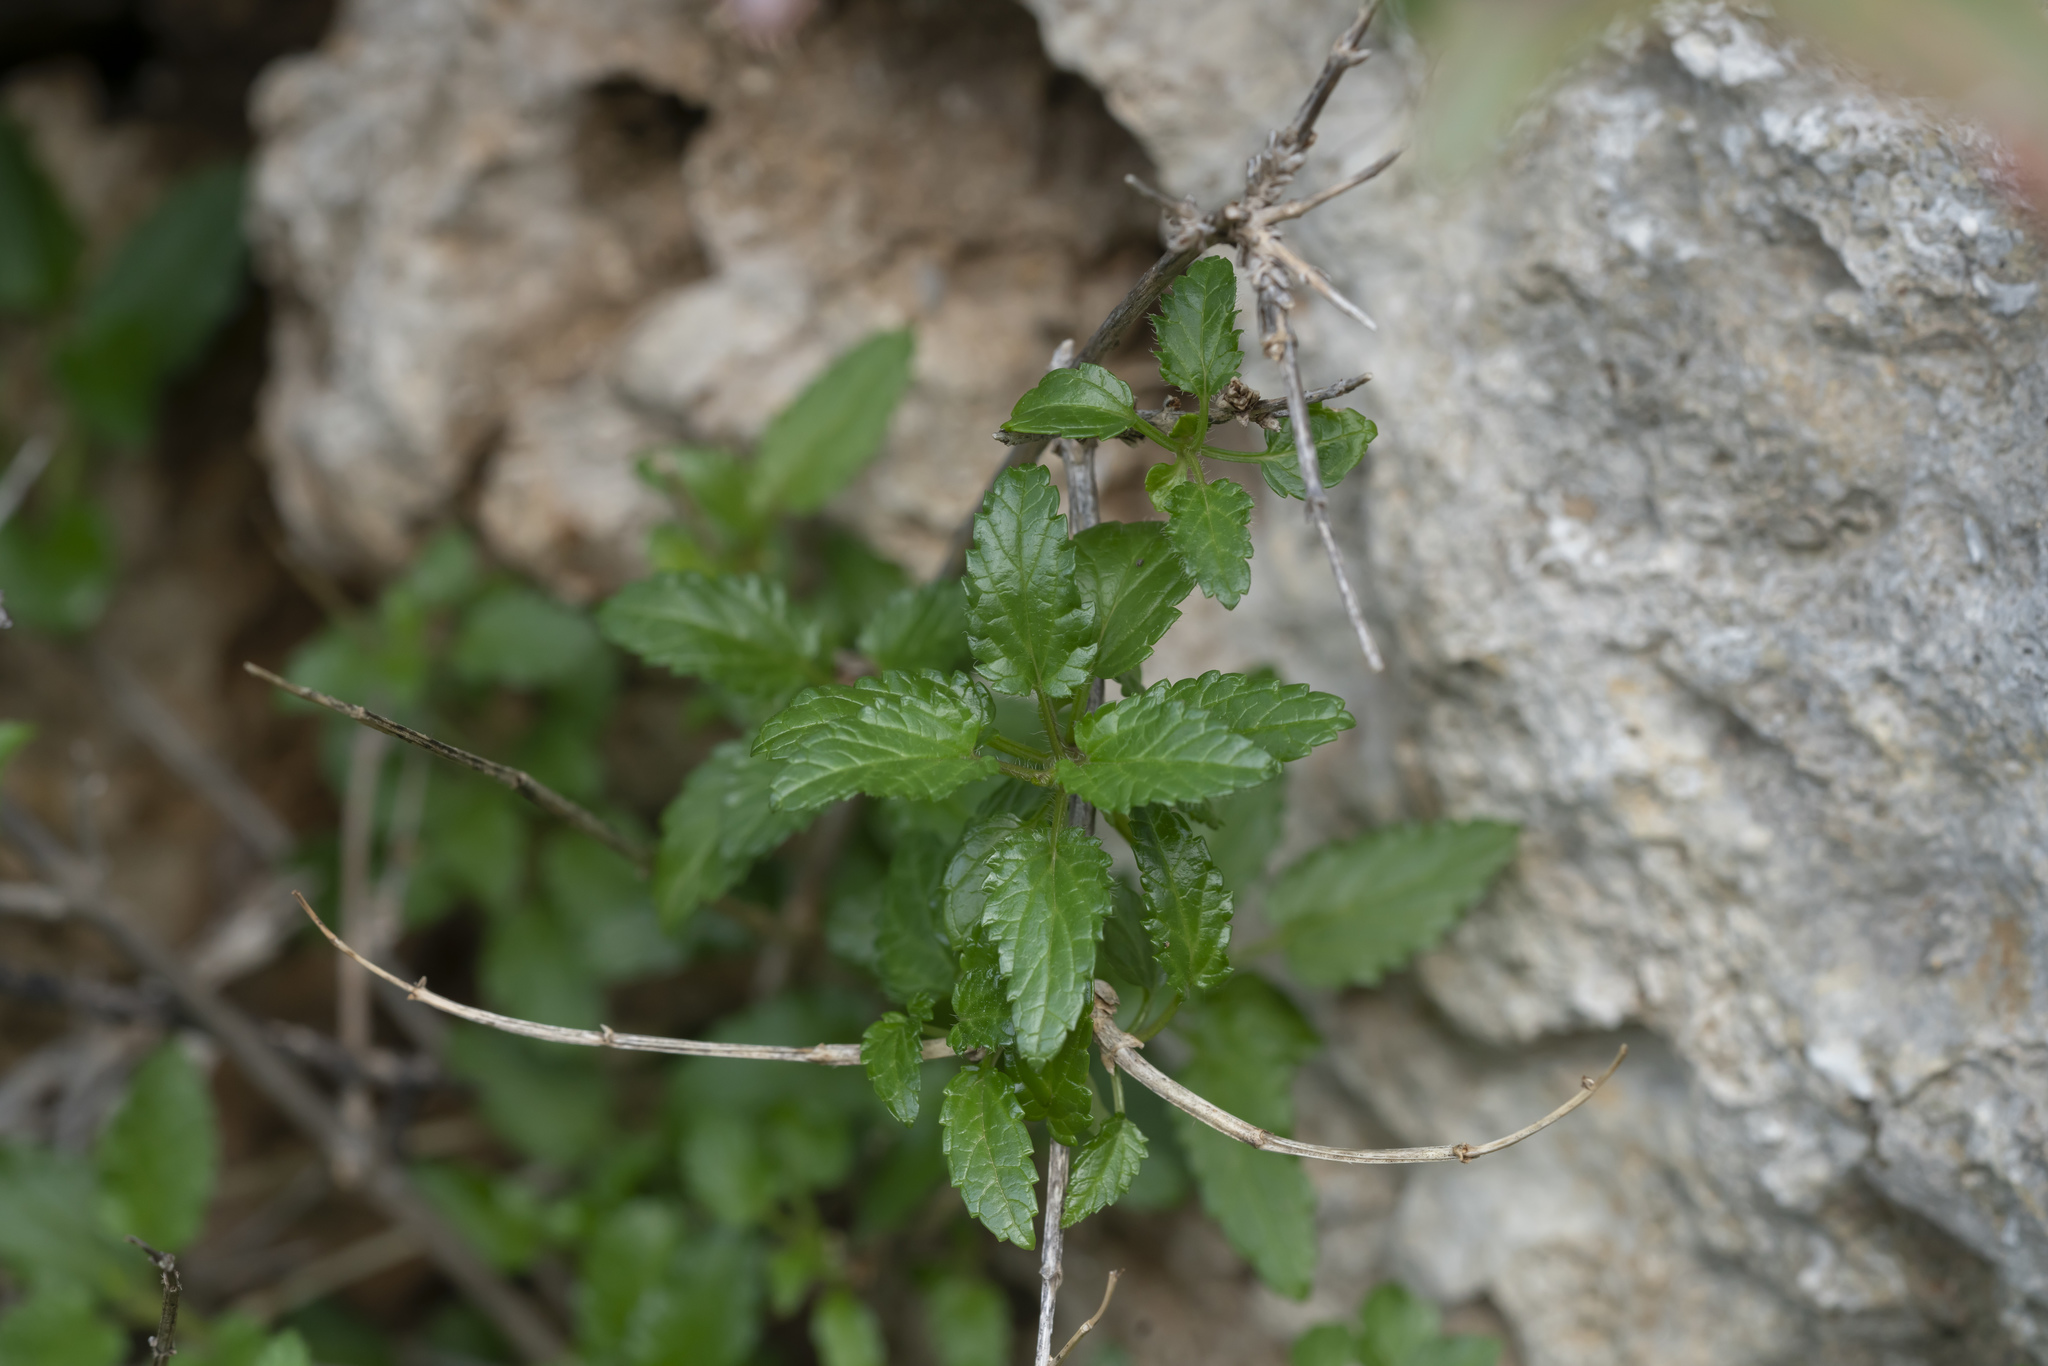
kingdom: Plantae
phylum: Tracheophyta
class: Magnoliopsida
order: Lamiales
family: Lamiaceae
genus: Prasium
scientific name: Prasium majus
